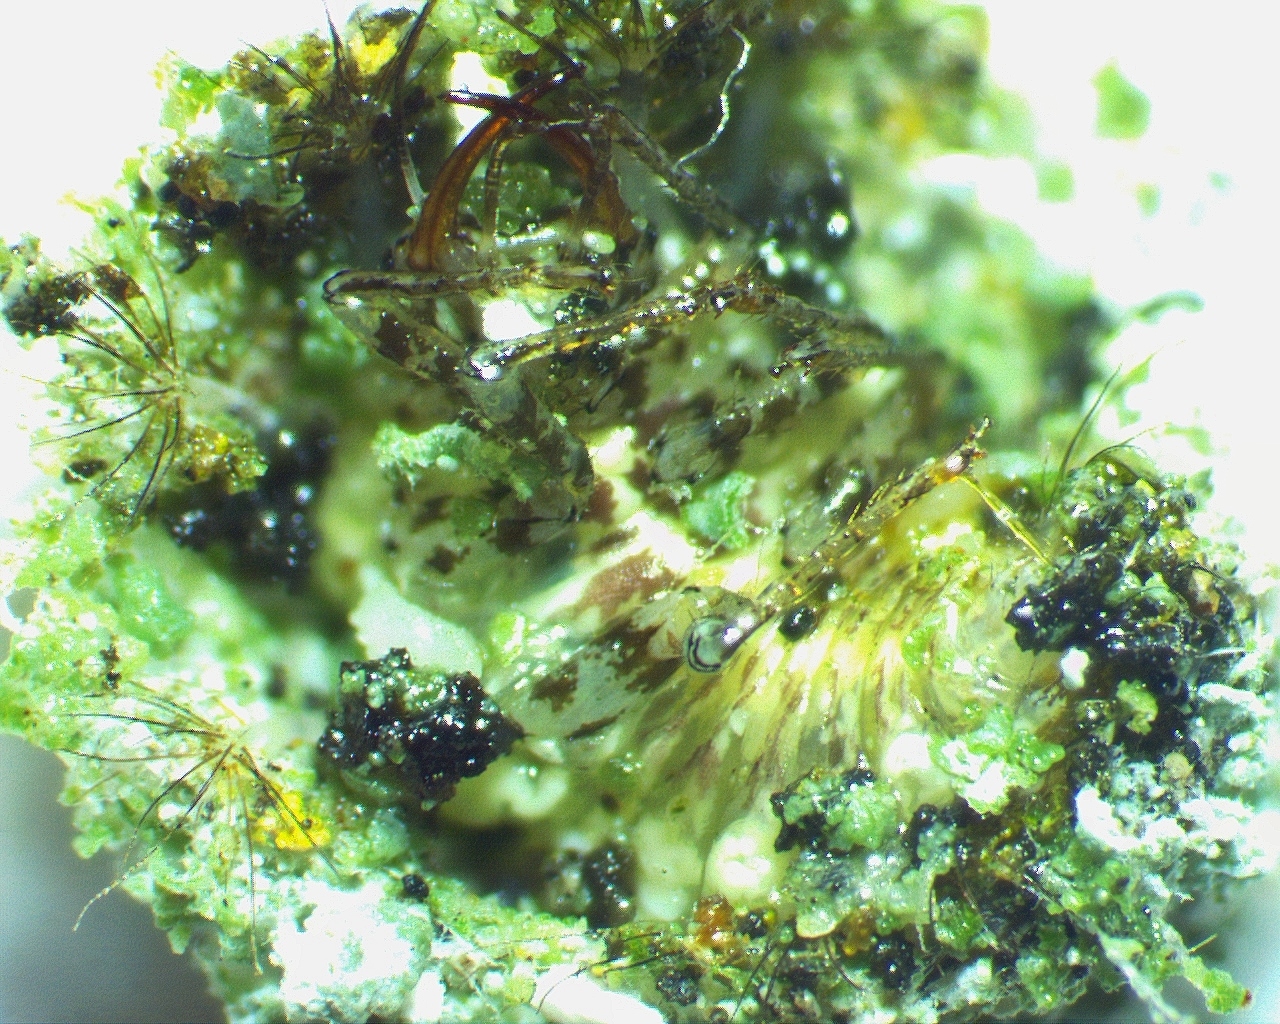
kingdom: Animalia
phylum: Arthropoda
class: Insecta
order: Neuroptera
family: Chrysopidae
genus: Leucochrysa
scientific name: Leucochrysa pavida
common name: Lichen-carrying green lacewing
